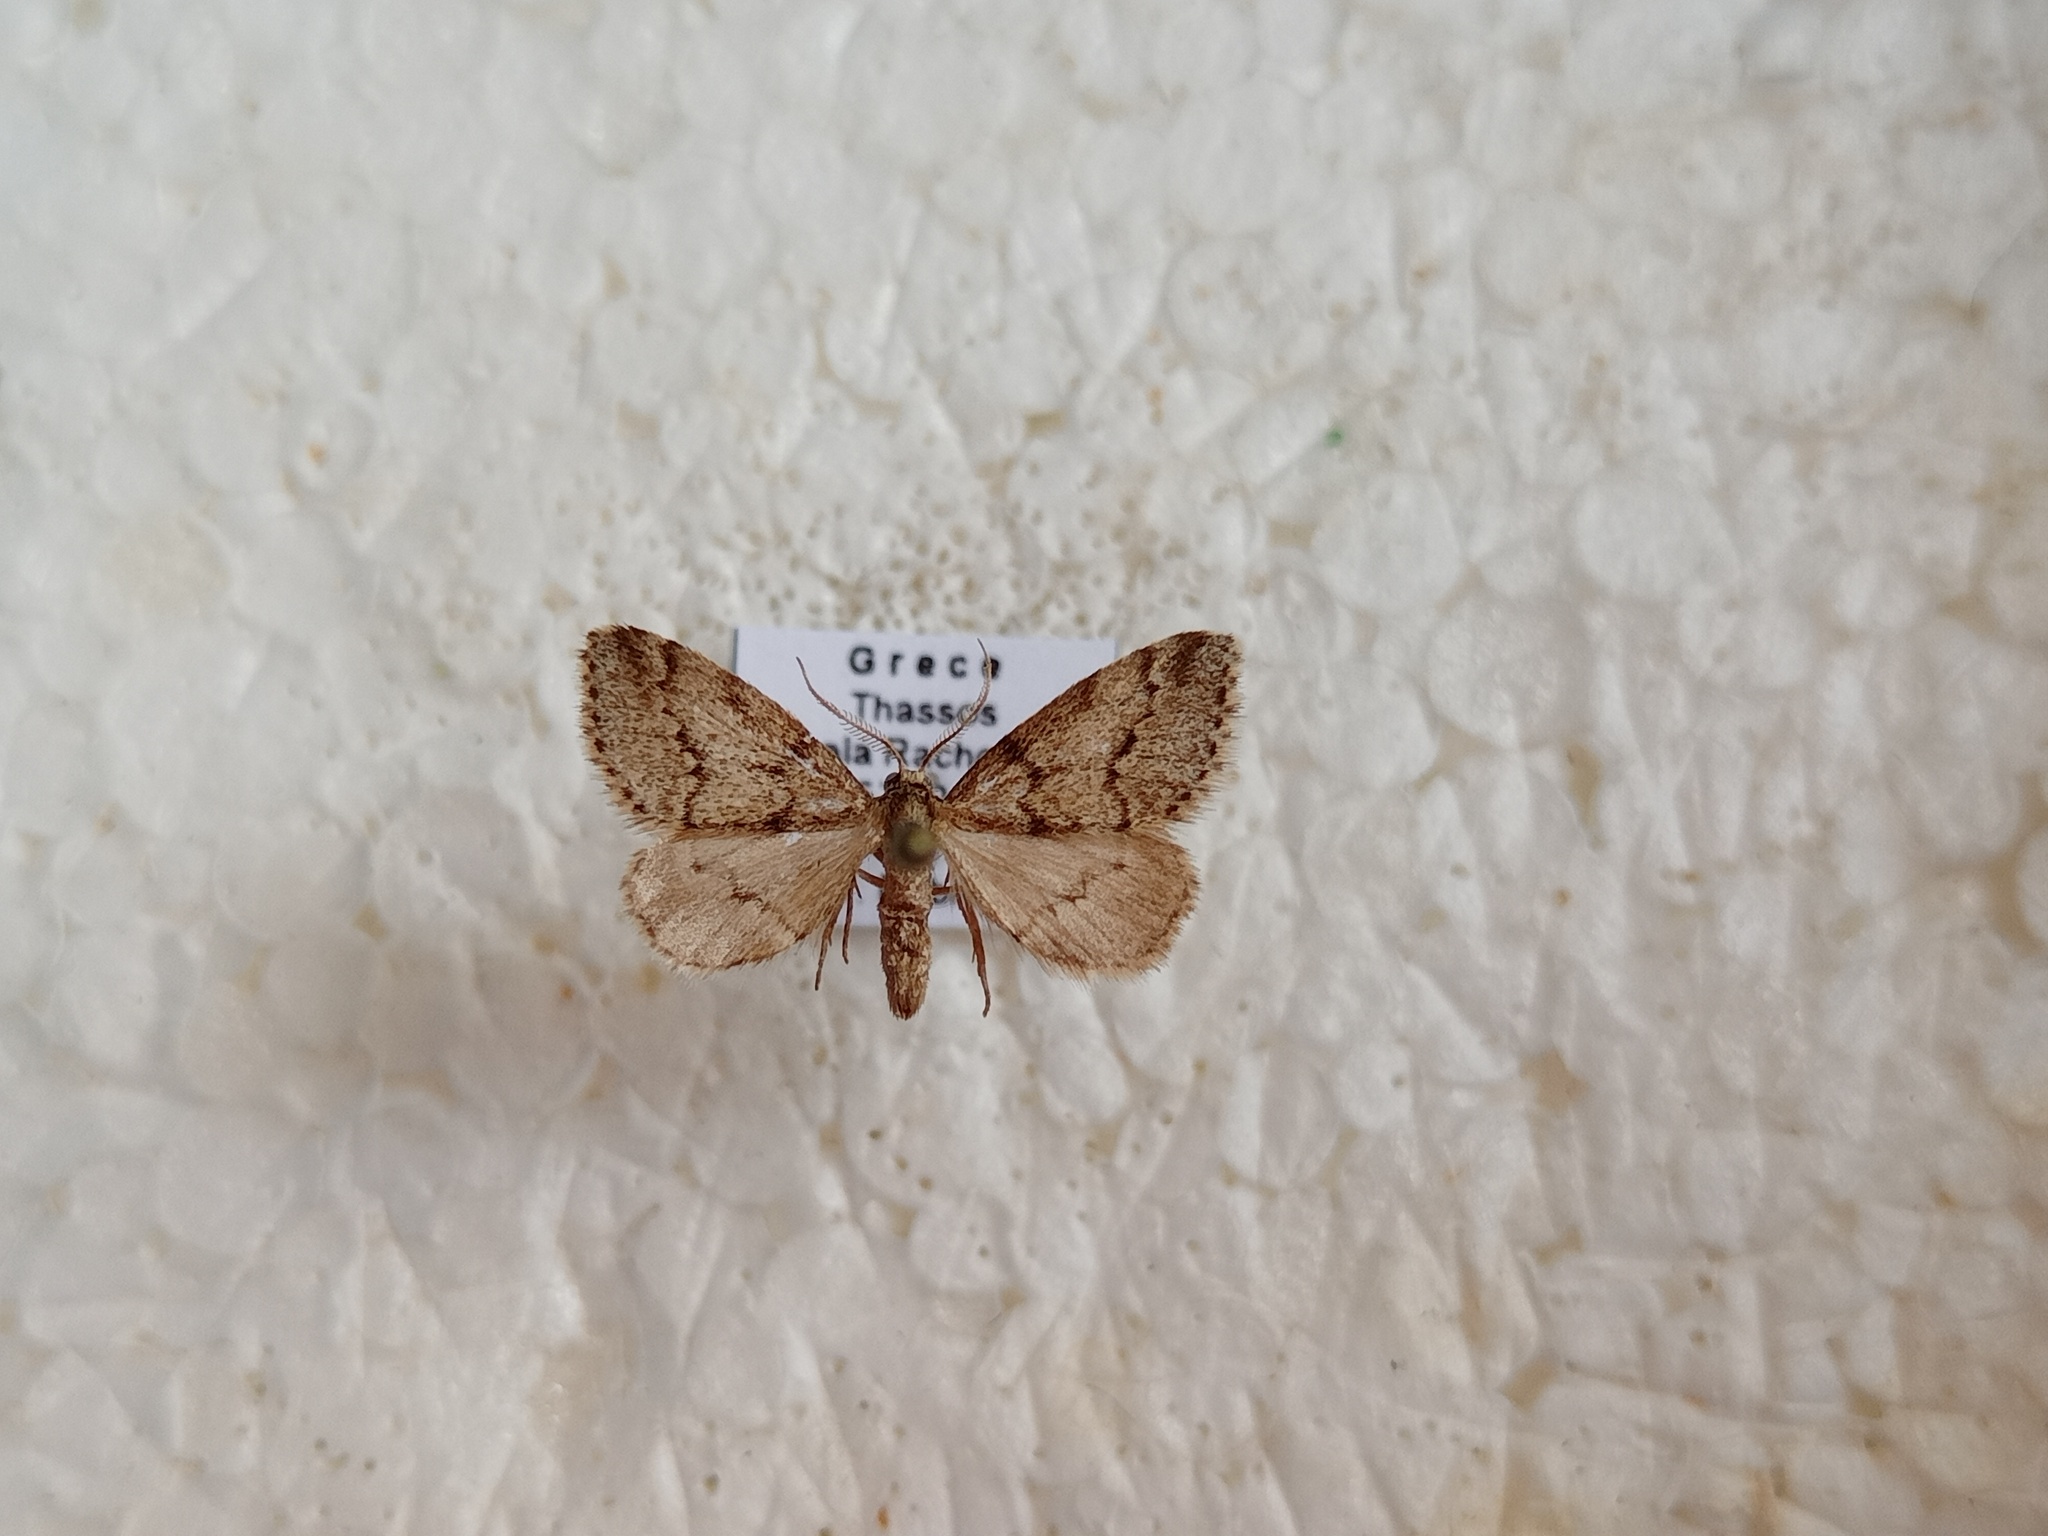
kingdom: Animalia
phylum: Arthropoda
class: Insecta
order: Lepidoptera
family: Geometridae
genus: Eumannia
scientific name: Eumannia oppositaria
